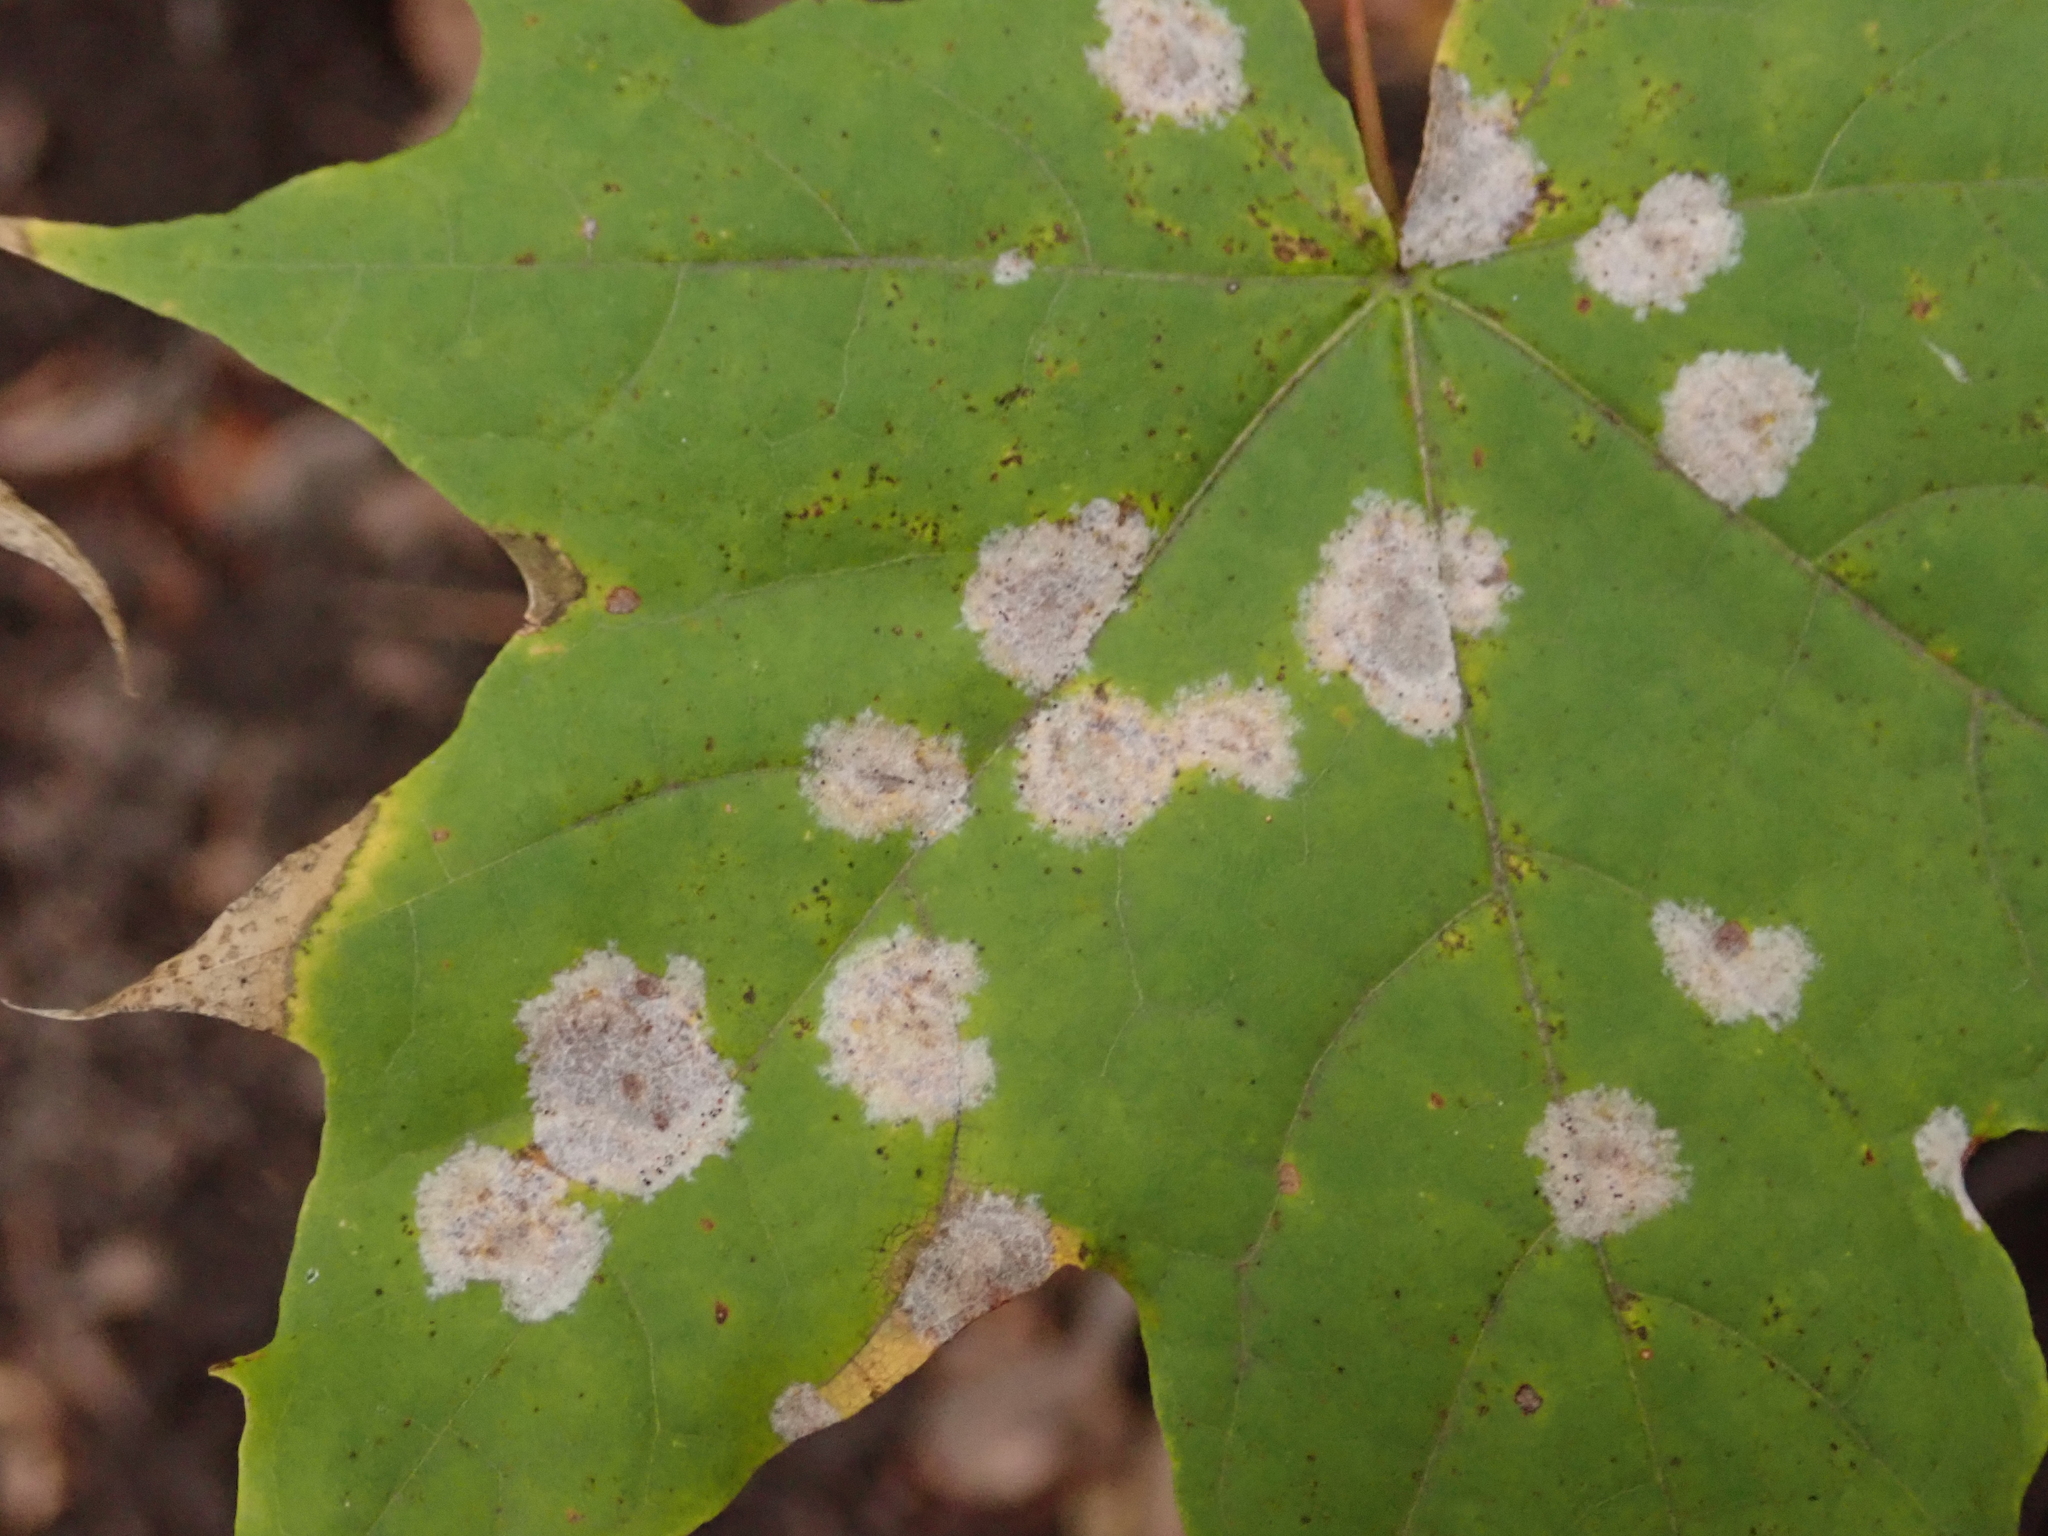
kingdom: Fungi
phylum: Ascomycota
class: Leotiomycetes
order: Helotiales
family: Erysiphaceae
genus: Sawadaea
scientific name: Sawadaea tulasnei
